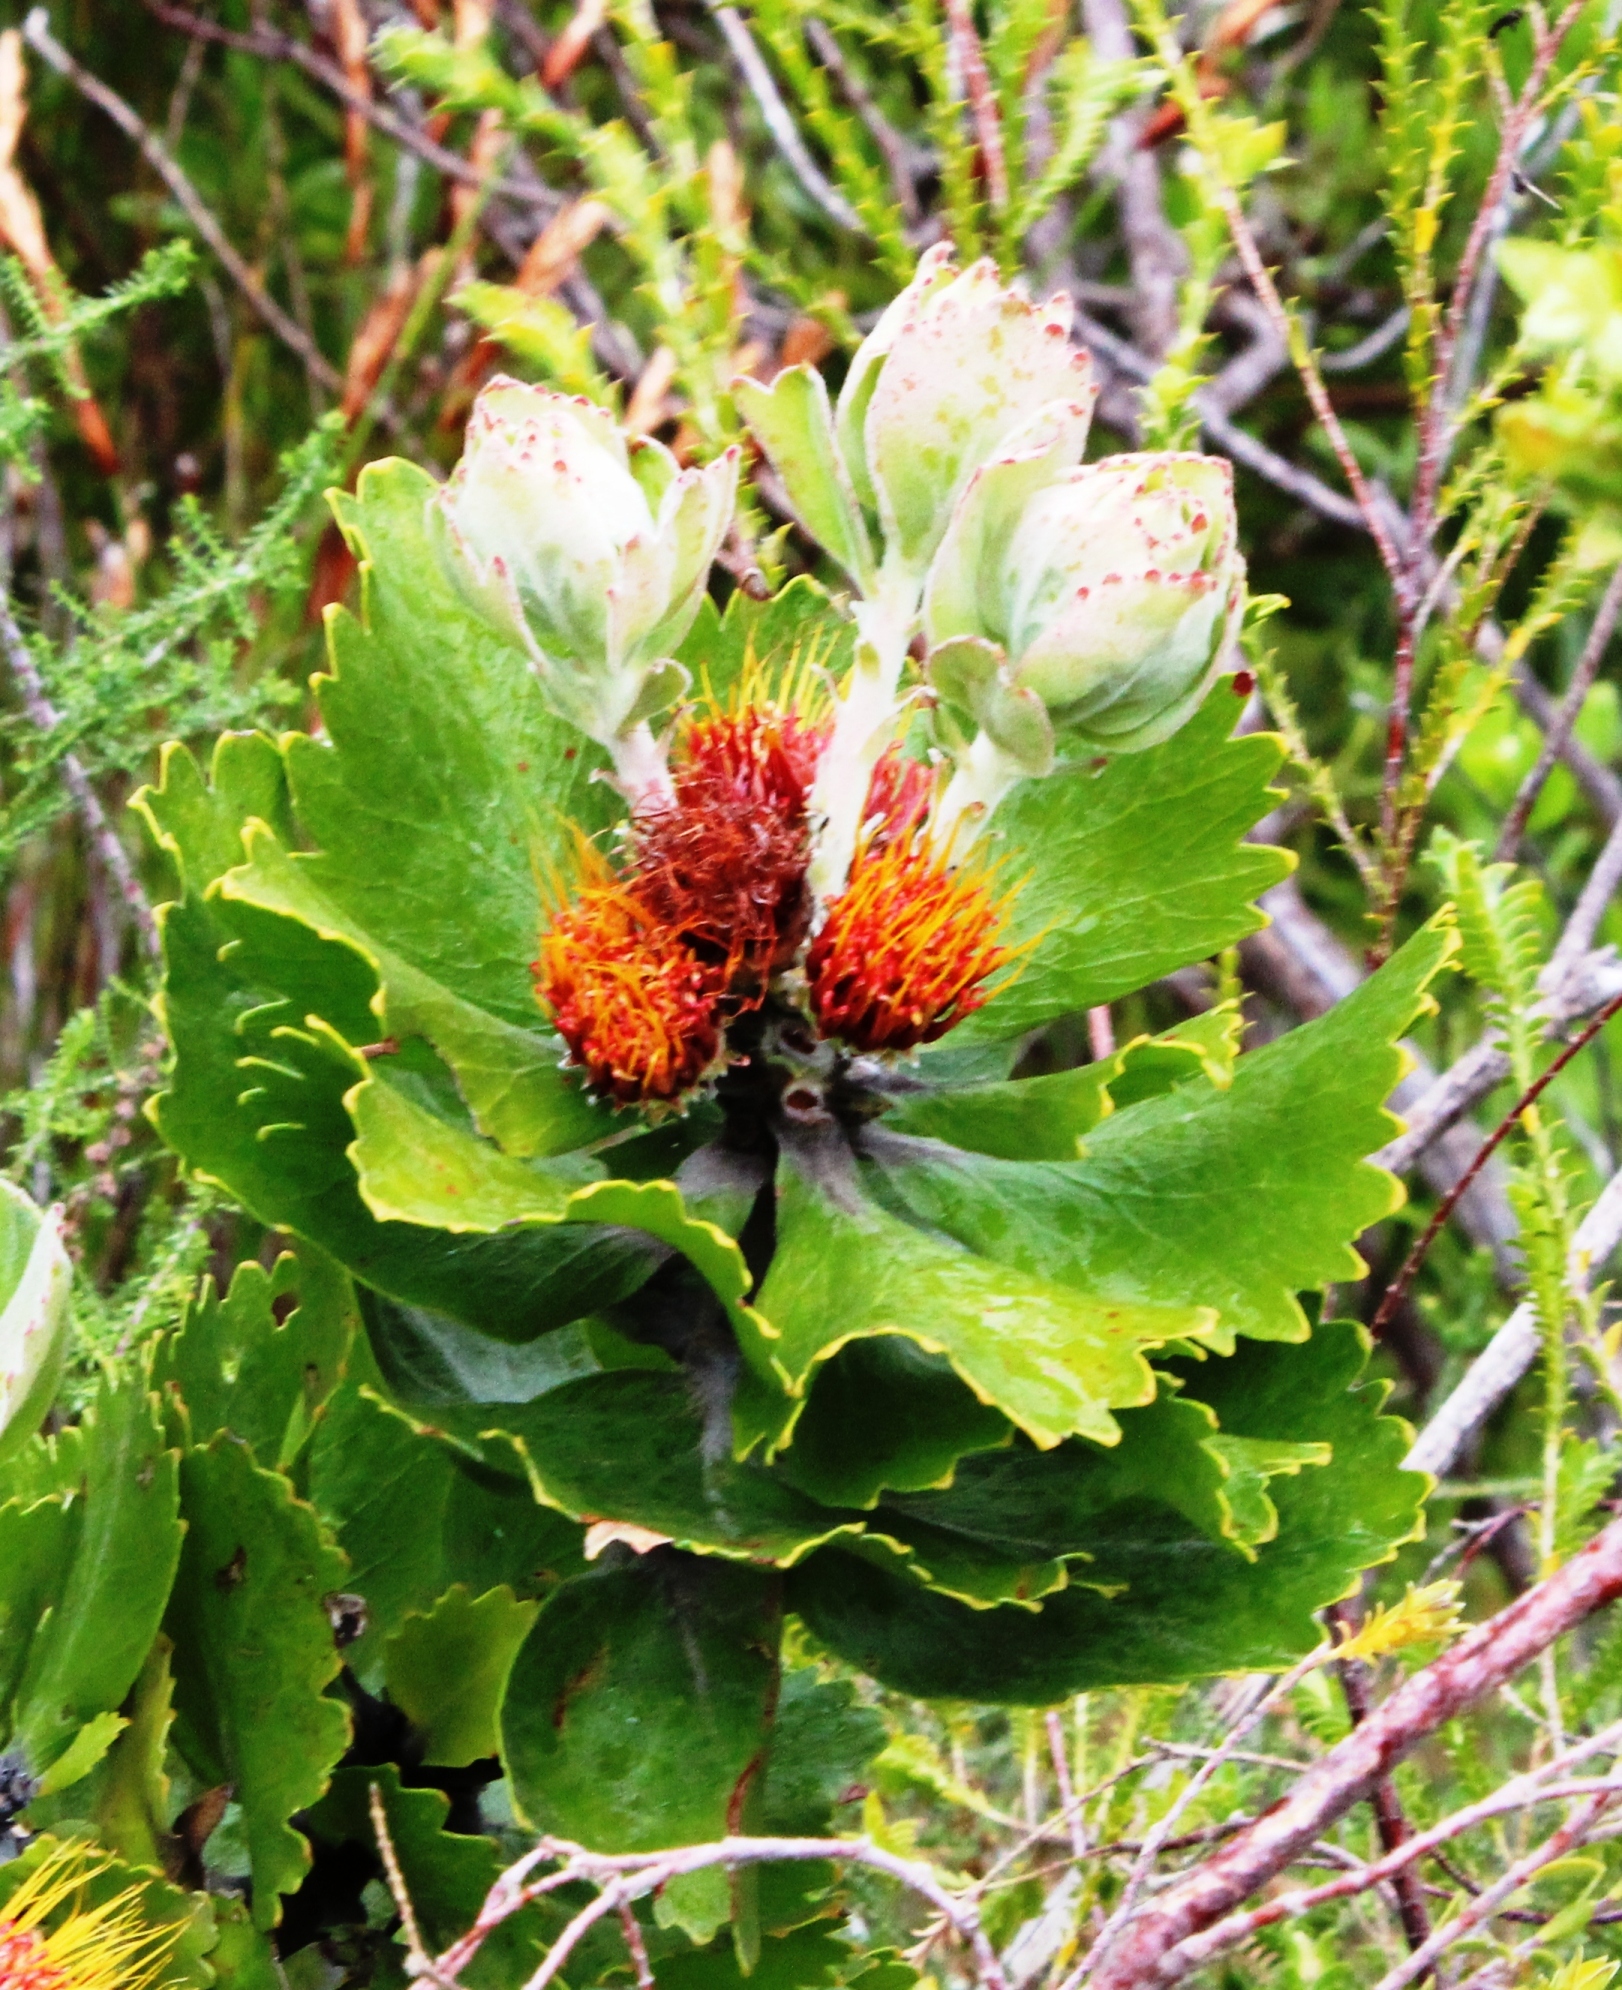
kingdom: Plantae
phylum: Tracheophyta
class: Magnoliopsida
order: Proteales
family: Proteaceae
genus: Leucospermum
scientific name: Leucospermum mundii
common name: Langeberg pincushion
